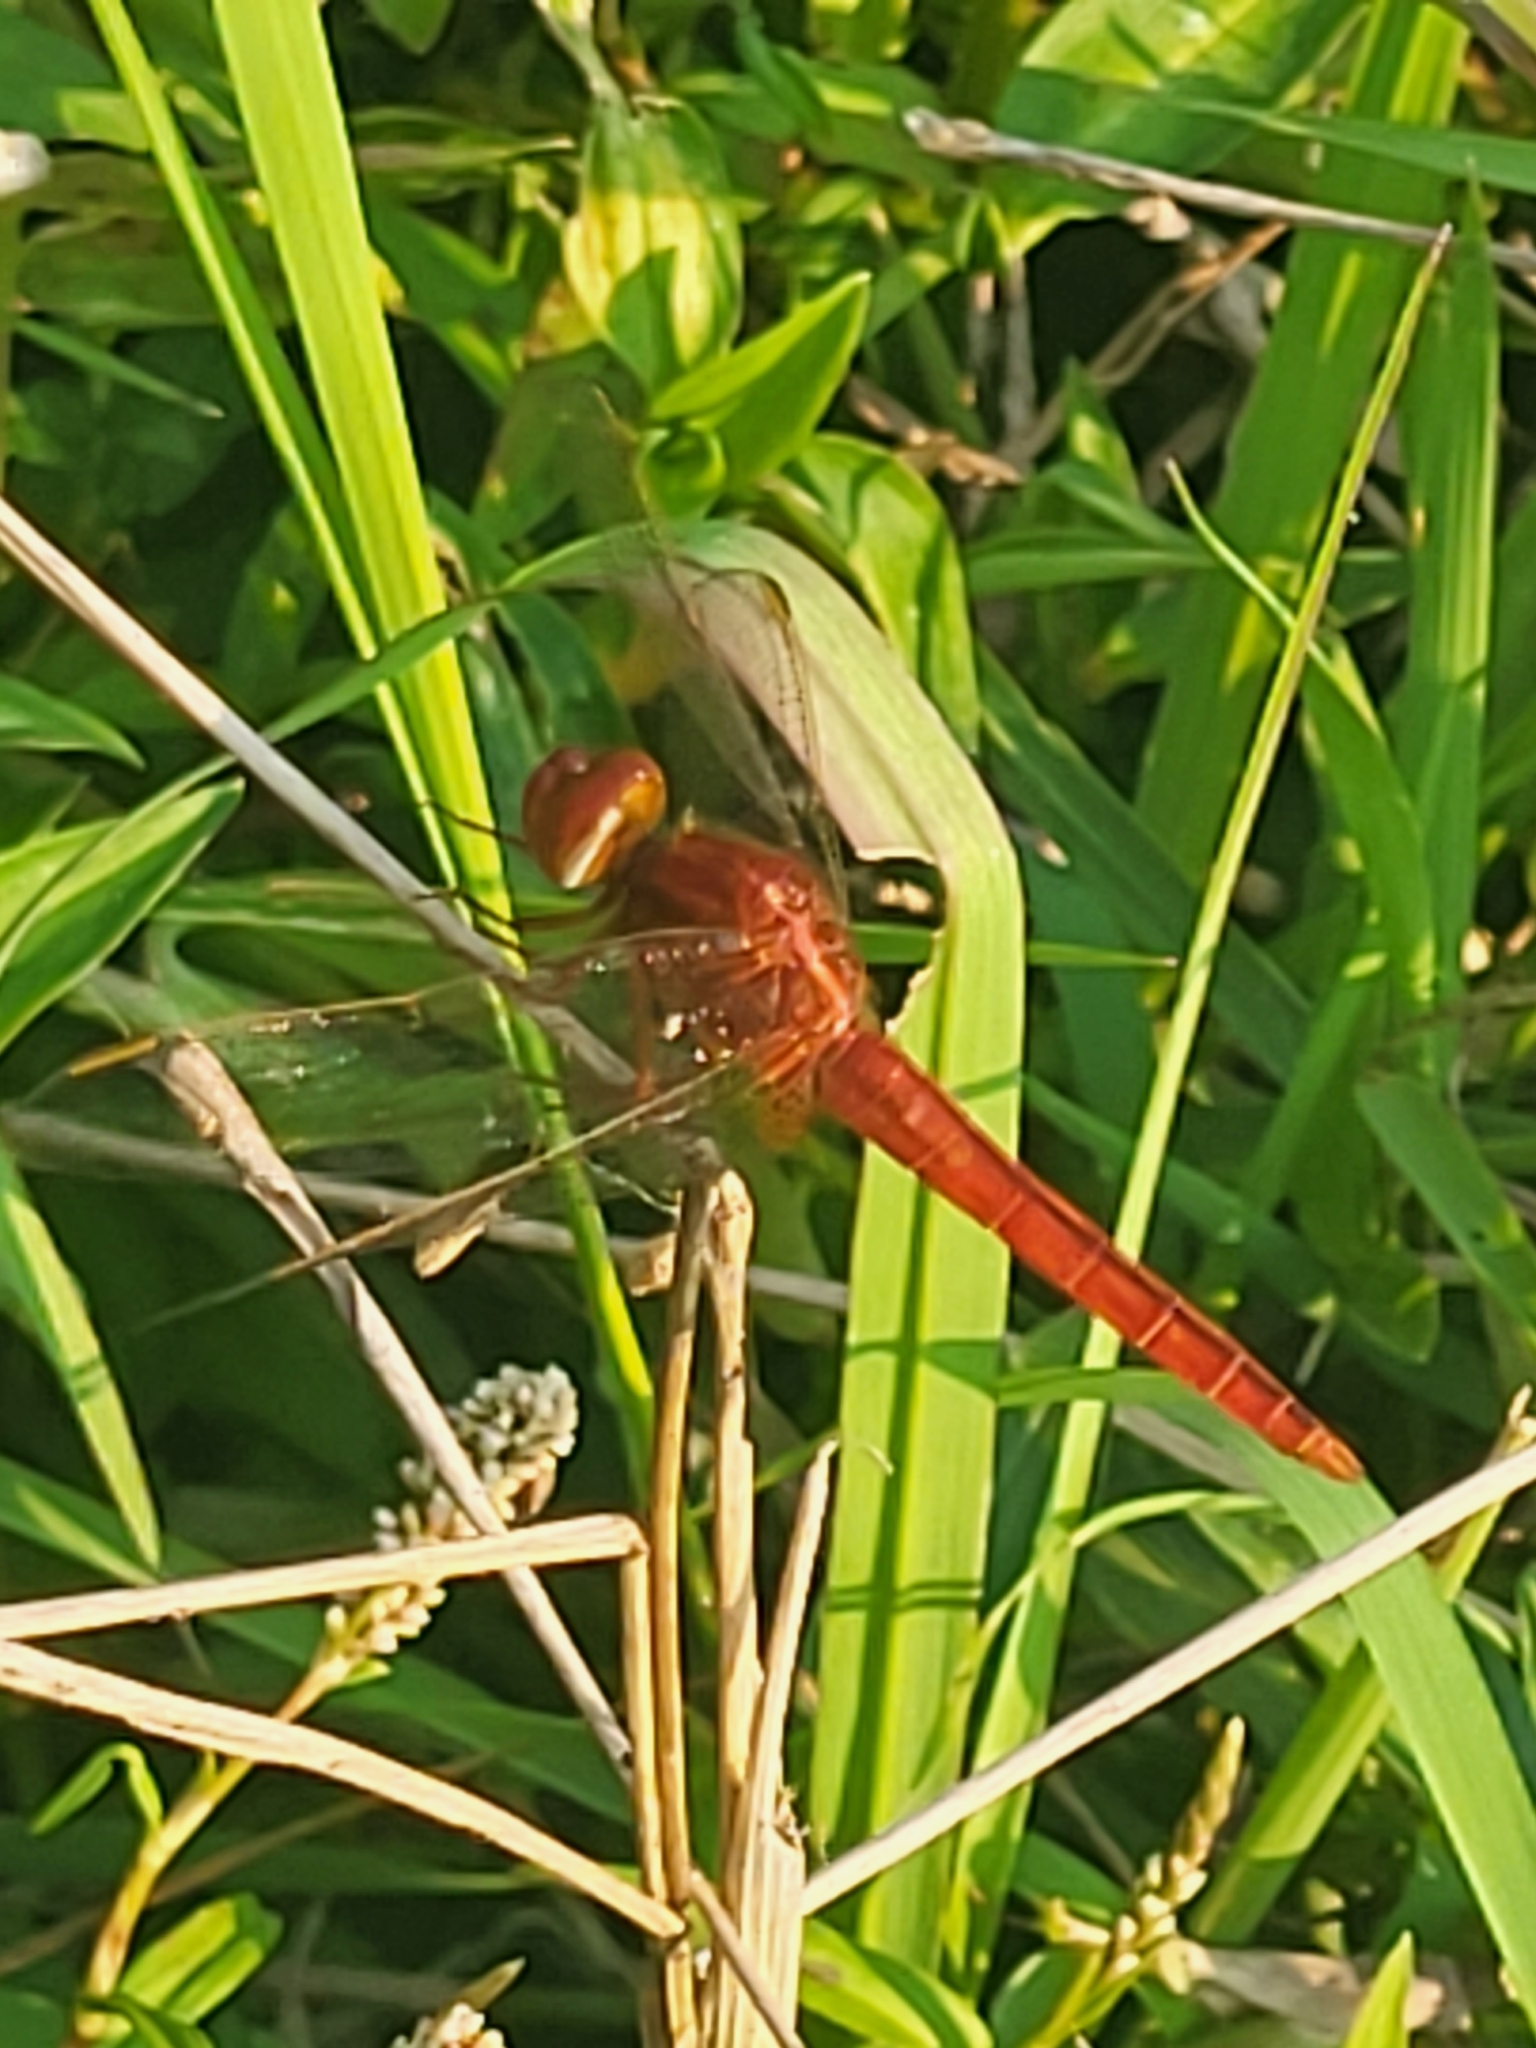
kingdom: Animalia
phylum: Arthropoda
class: Insecta
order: Odonata
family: Libellulidae
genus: Crocothemis
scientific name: Crocothemis servilia
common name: Scarlet skimmer
